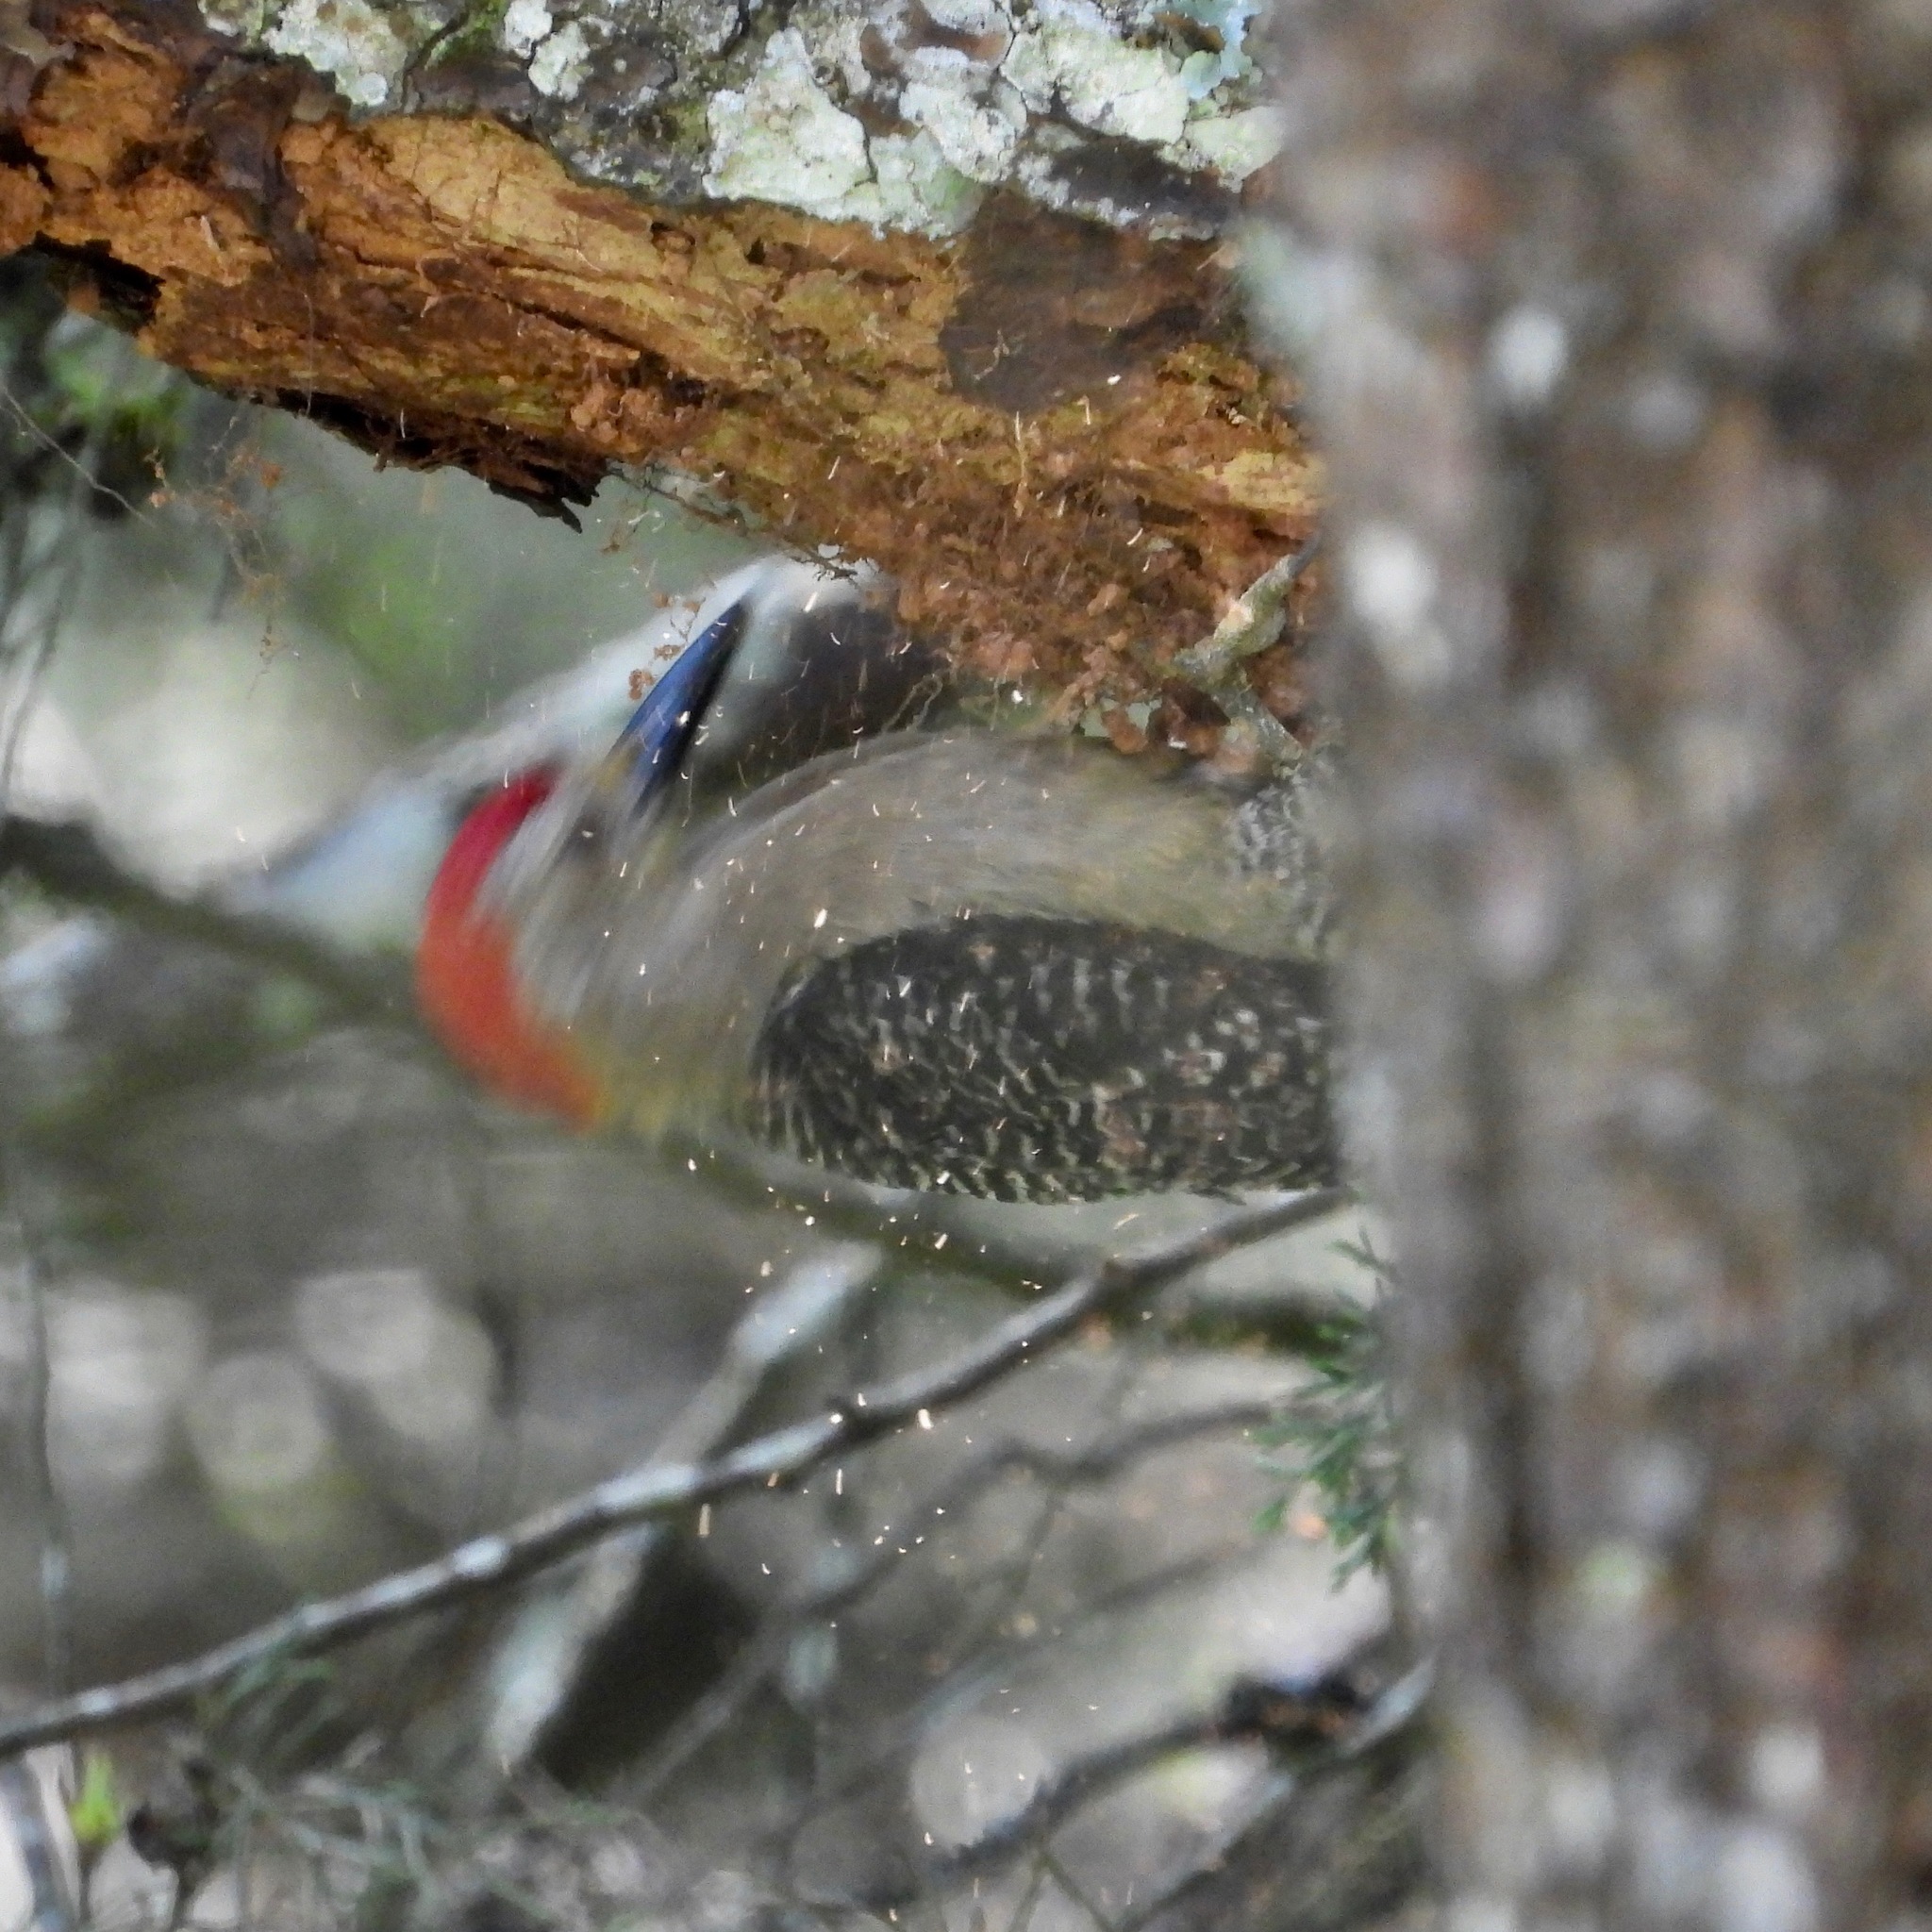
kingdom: Animalia
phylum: Chordata
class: Aves
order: Piciformes
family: Picidae
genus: Melanerpes
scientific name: Melanerpes aurifrons
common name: Golden-fronted woodpecker
